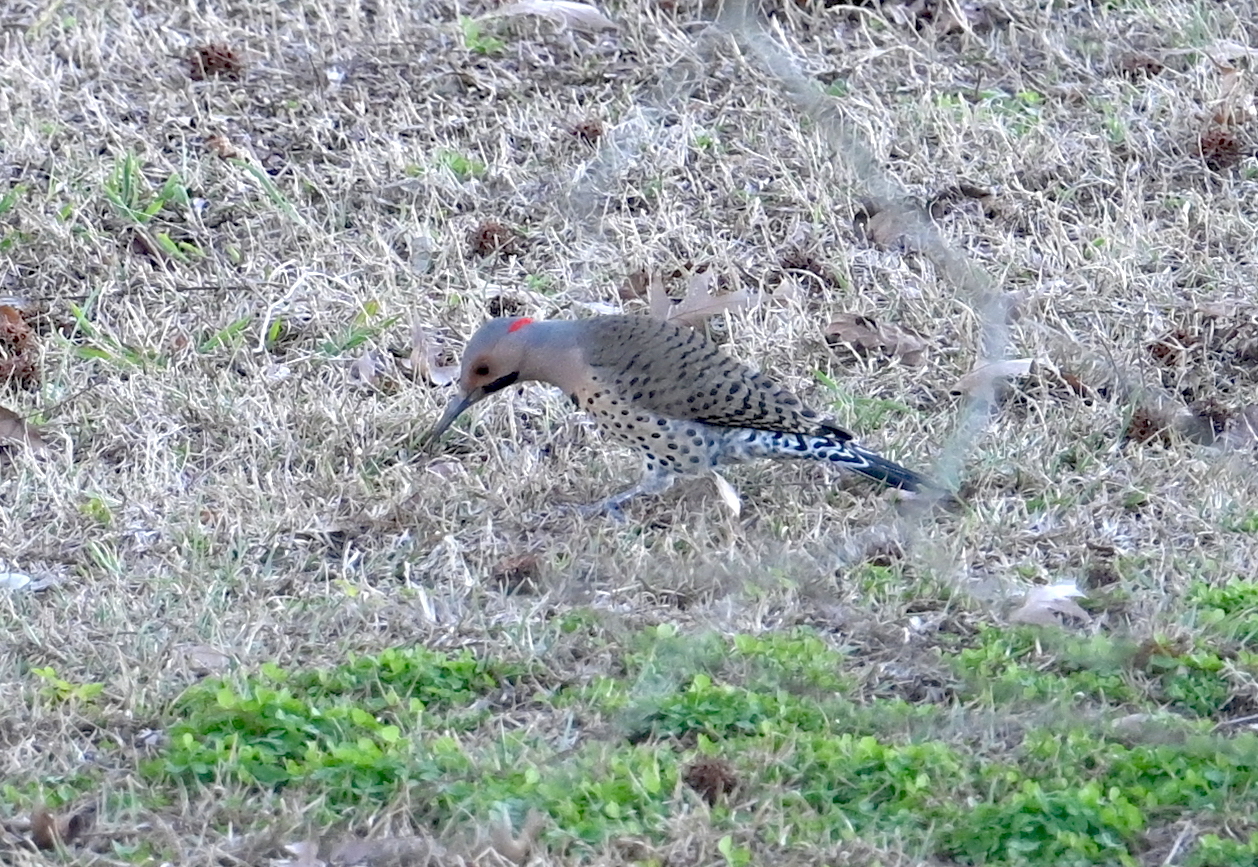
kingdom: Animalia
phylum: Chordata
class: Aves
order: Piciformes
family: Picidae
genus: Colaptes
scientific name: Colaptes auratus
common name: Northern flicker
